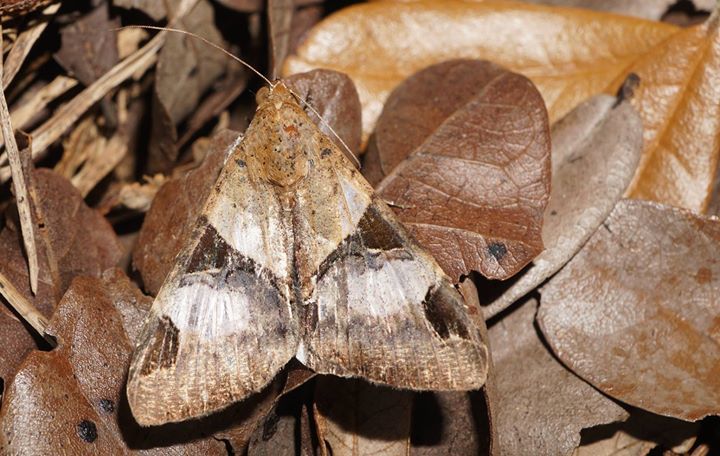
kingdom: Animalia
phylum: Arthropoda
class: Insecta
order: Lepidoptera
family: Erebidae
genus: Melipotis
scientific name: Melipotis fasciolaris
